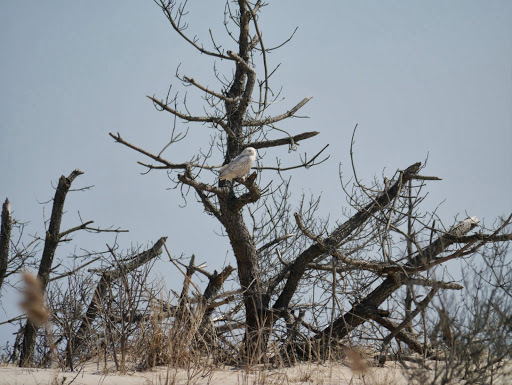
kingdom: Animalia
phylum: Chordata
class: Aves
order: Strigiformes
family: Strigidae
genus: Bubo
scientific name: Bubo scandiacus
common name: Snowy owl
